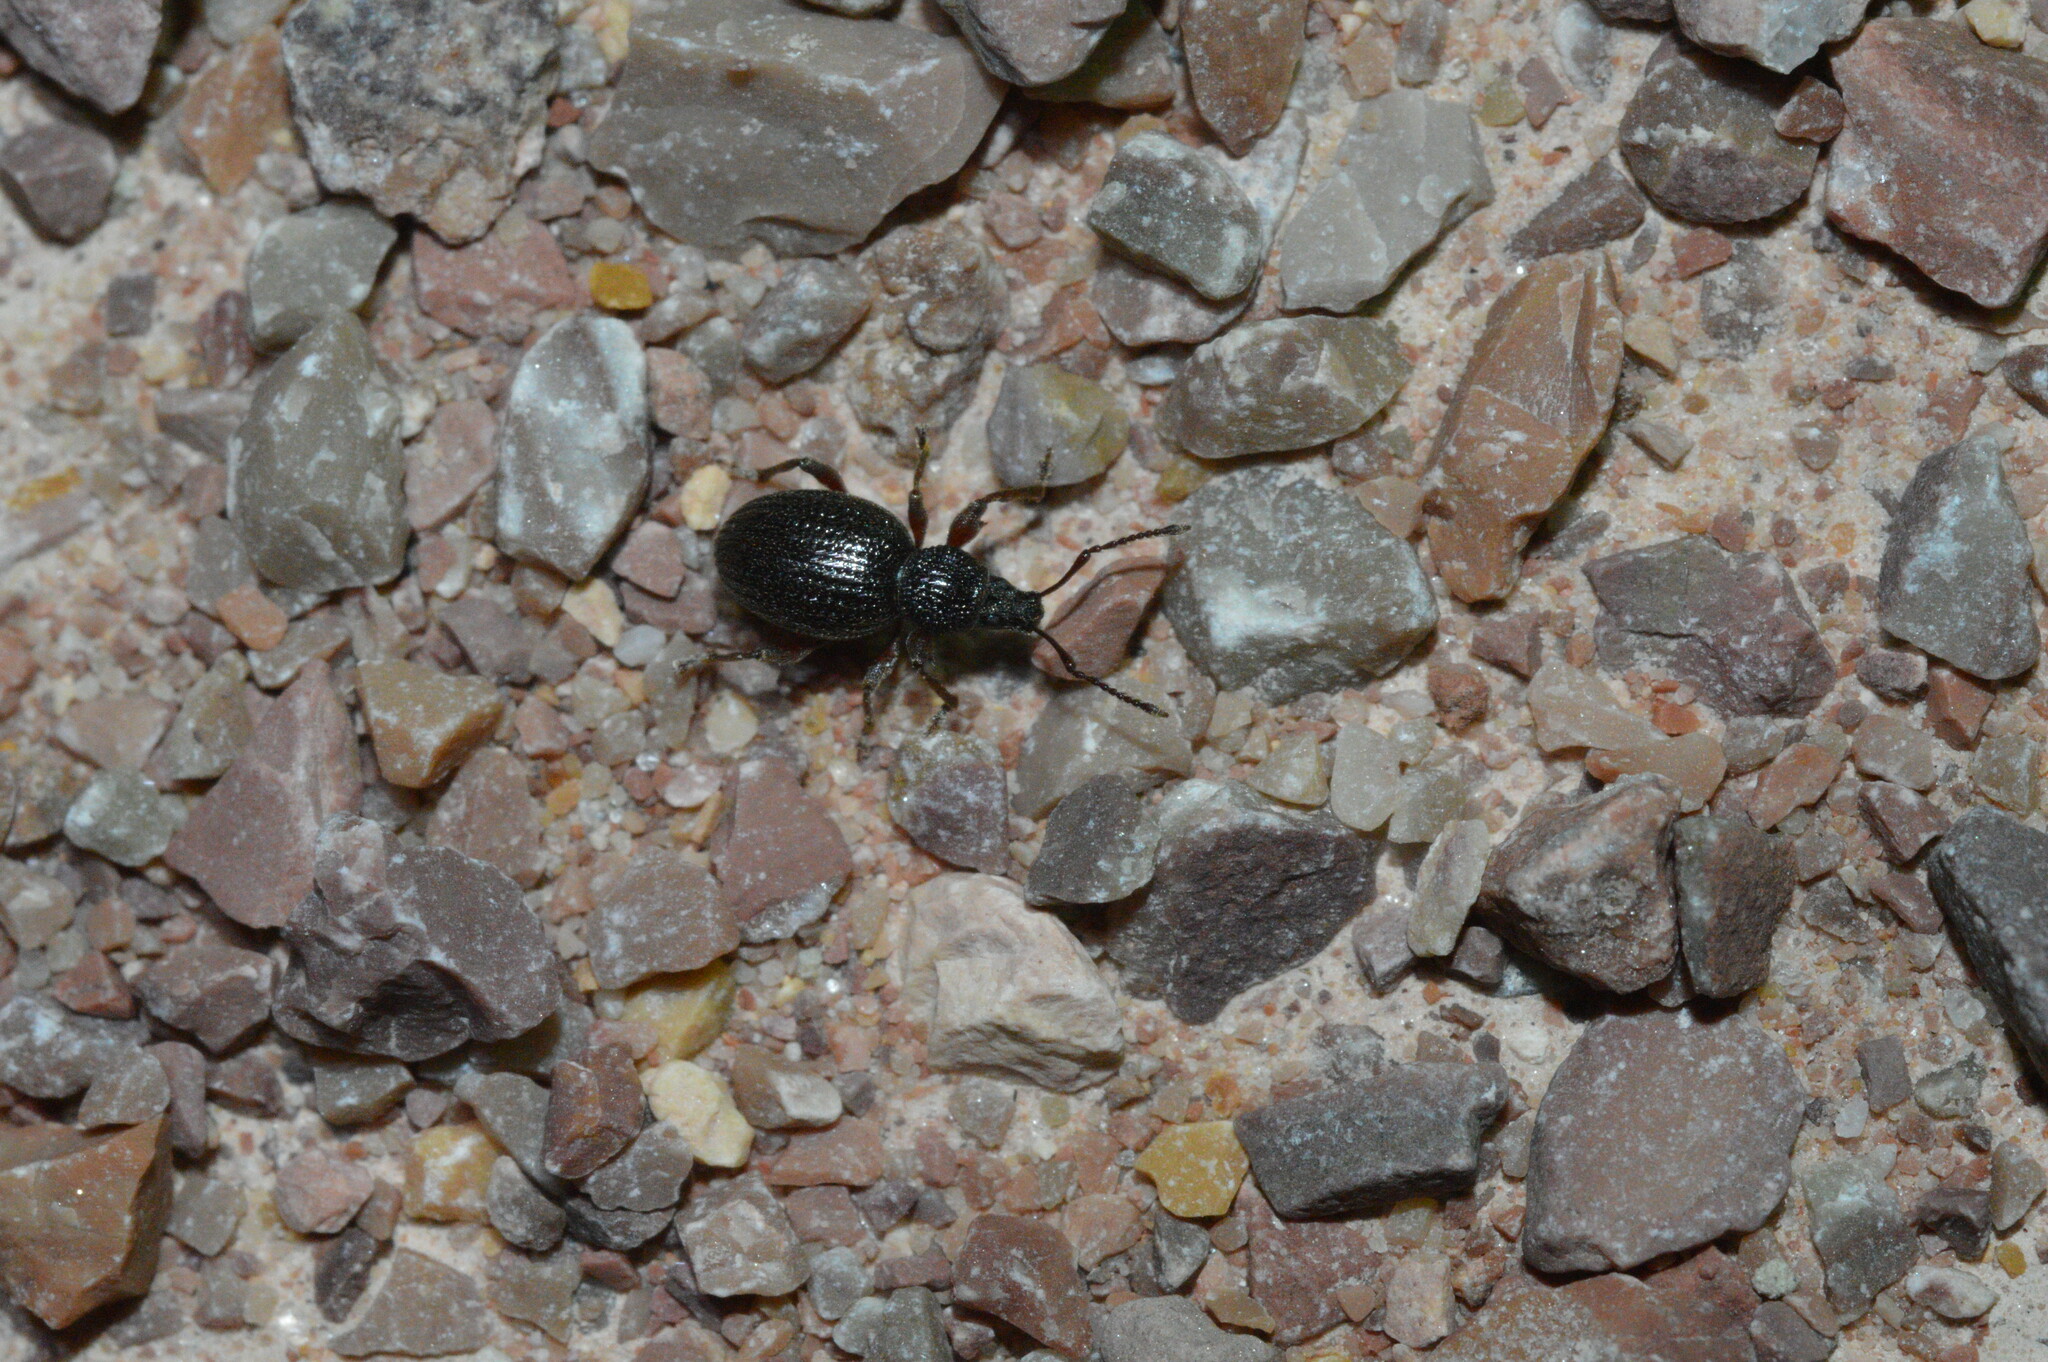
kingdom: Animalia
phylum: Arthropoda
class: Insecta
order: Coleoptera
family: Curculionidae
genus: Otiorhynchus
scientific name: Otiorhynchus ovatus
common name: Strawberry root weevil
